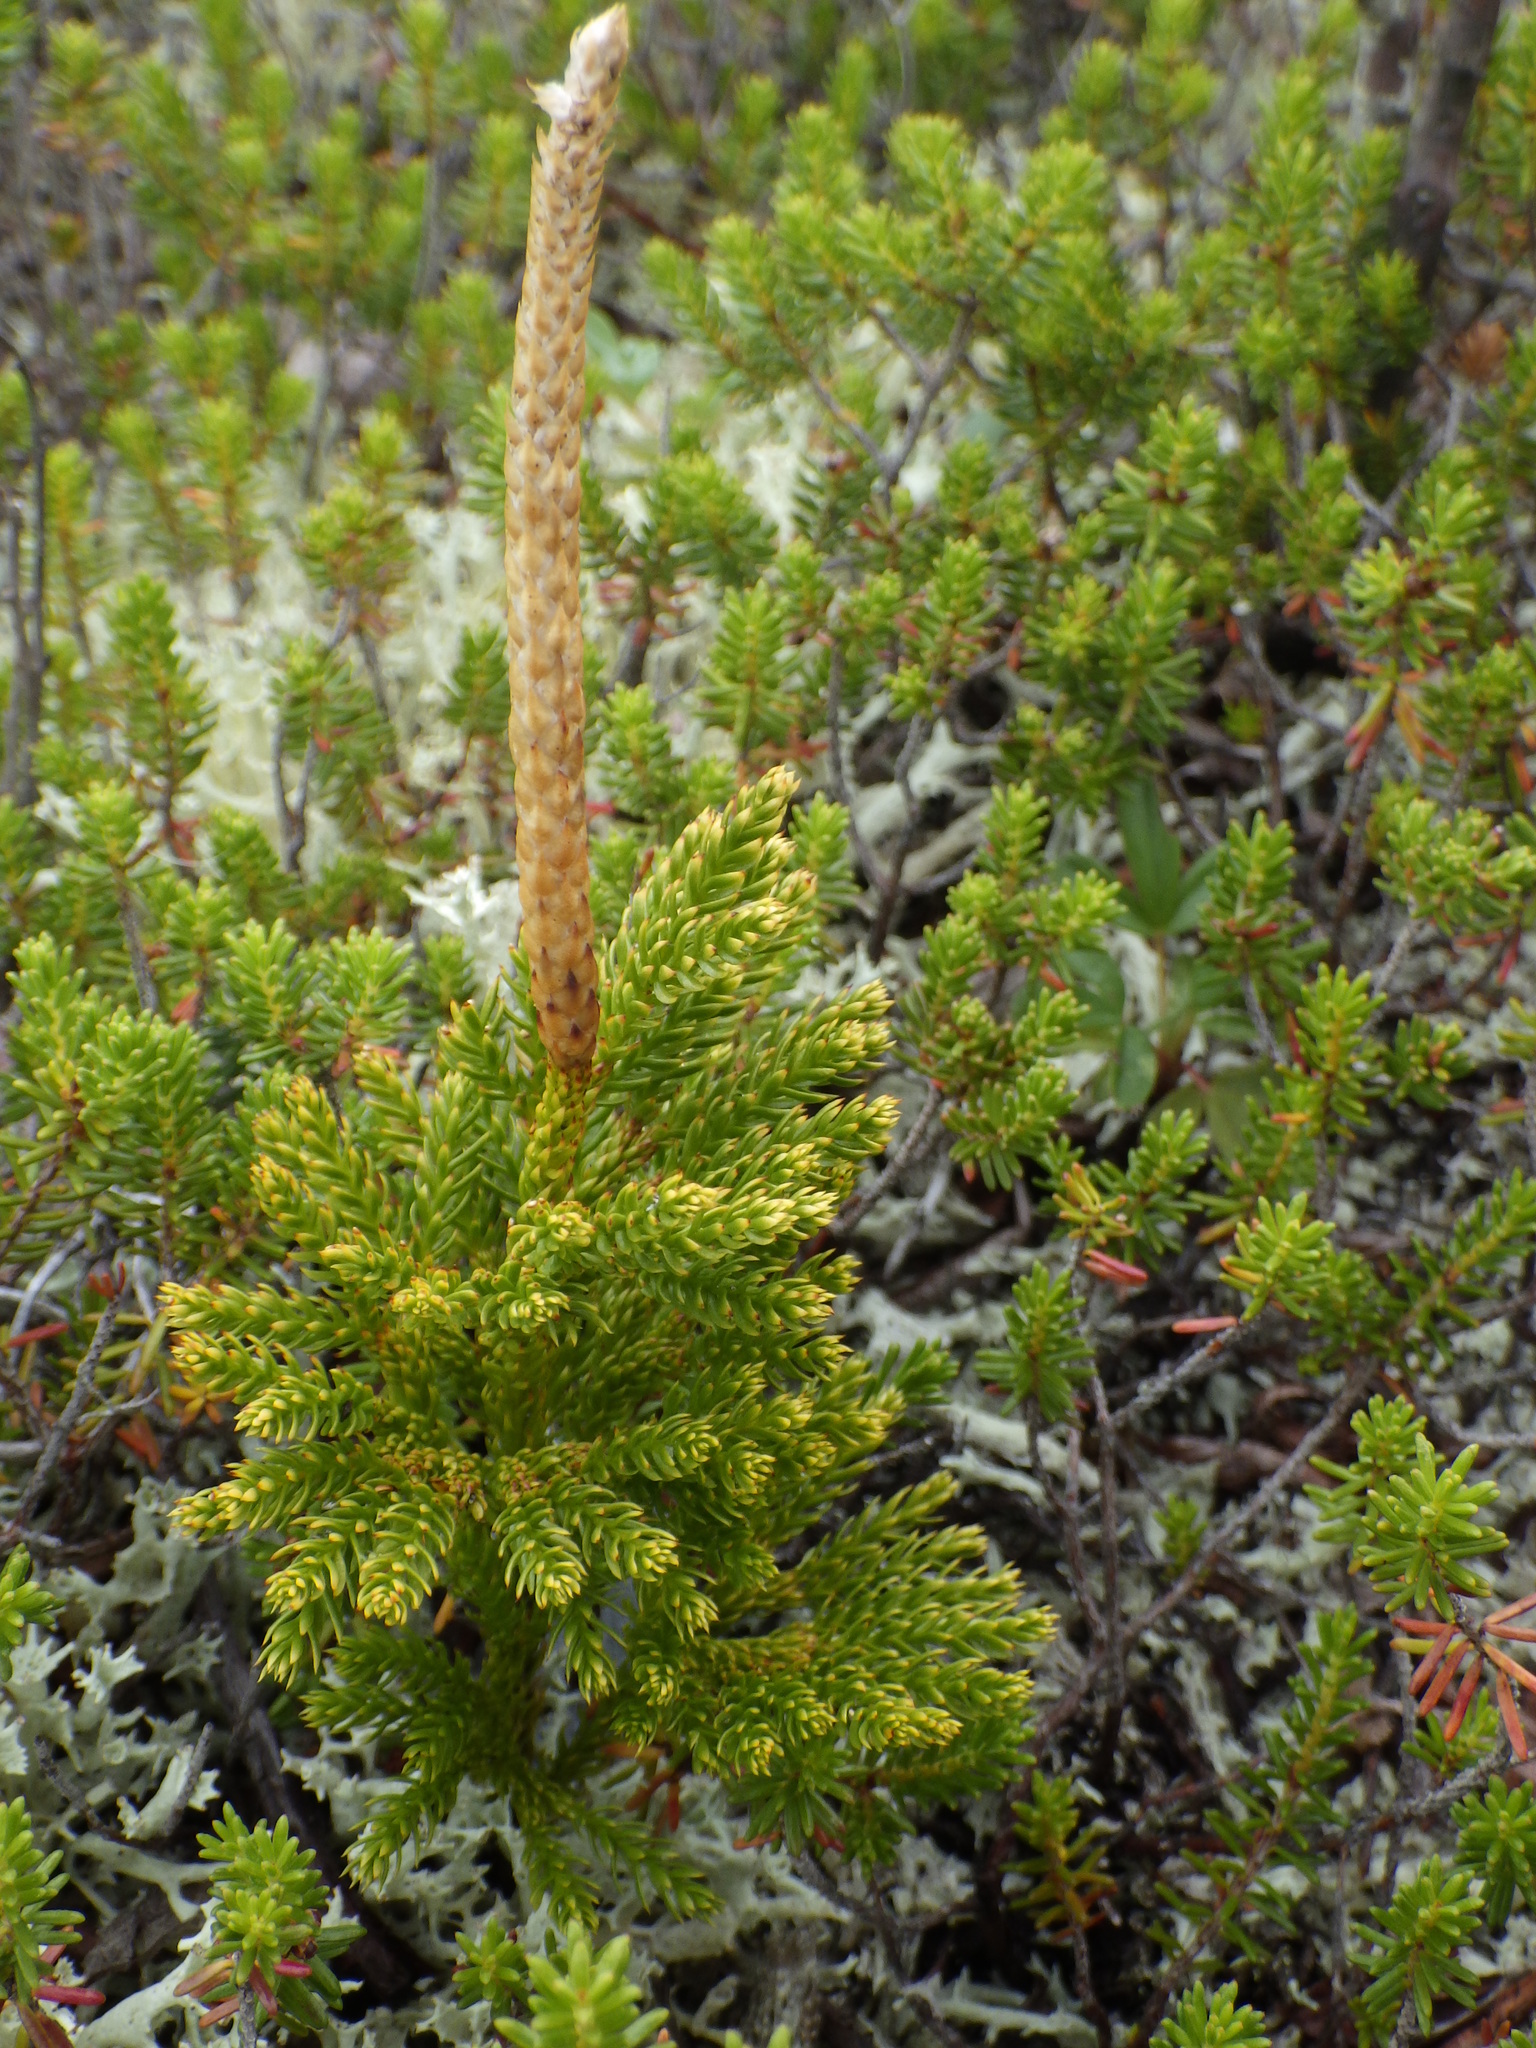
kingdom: Plantae
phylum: Tracheophyta
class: Lycopodiopsida
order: Lycopodiales
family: Lycopodiaceae
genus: Dendrolycopodium
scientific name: Dendrolycopodium hickeyi
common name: Hickey's clubmoss
